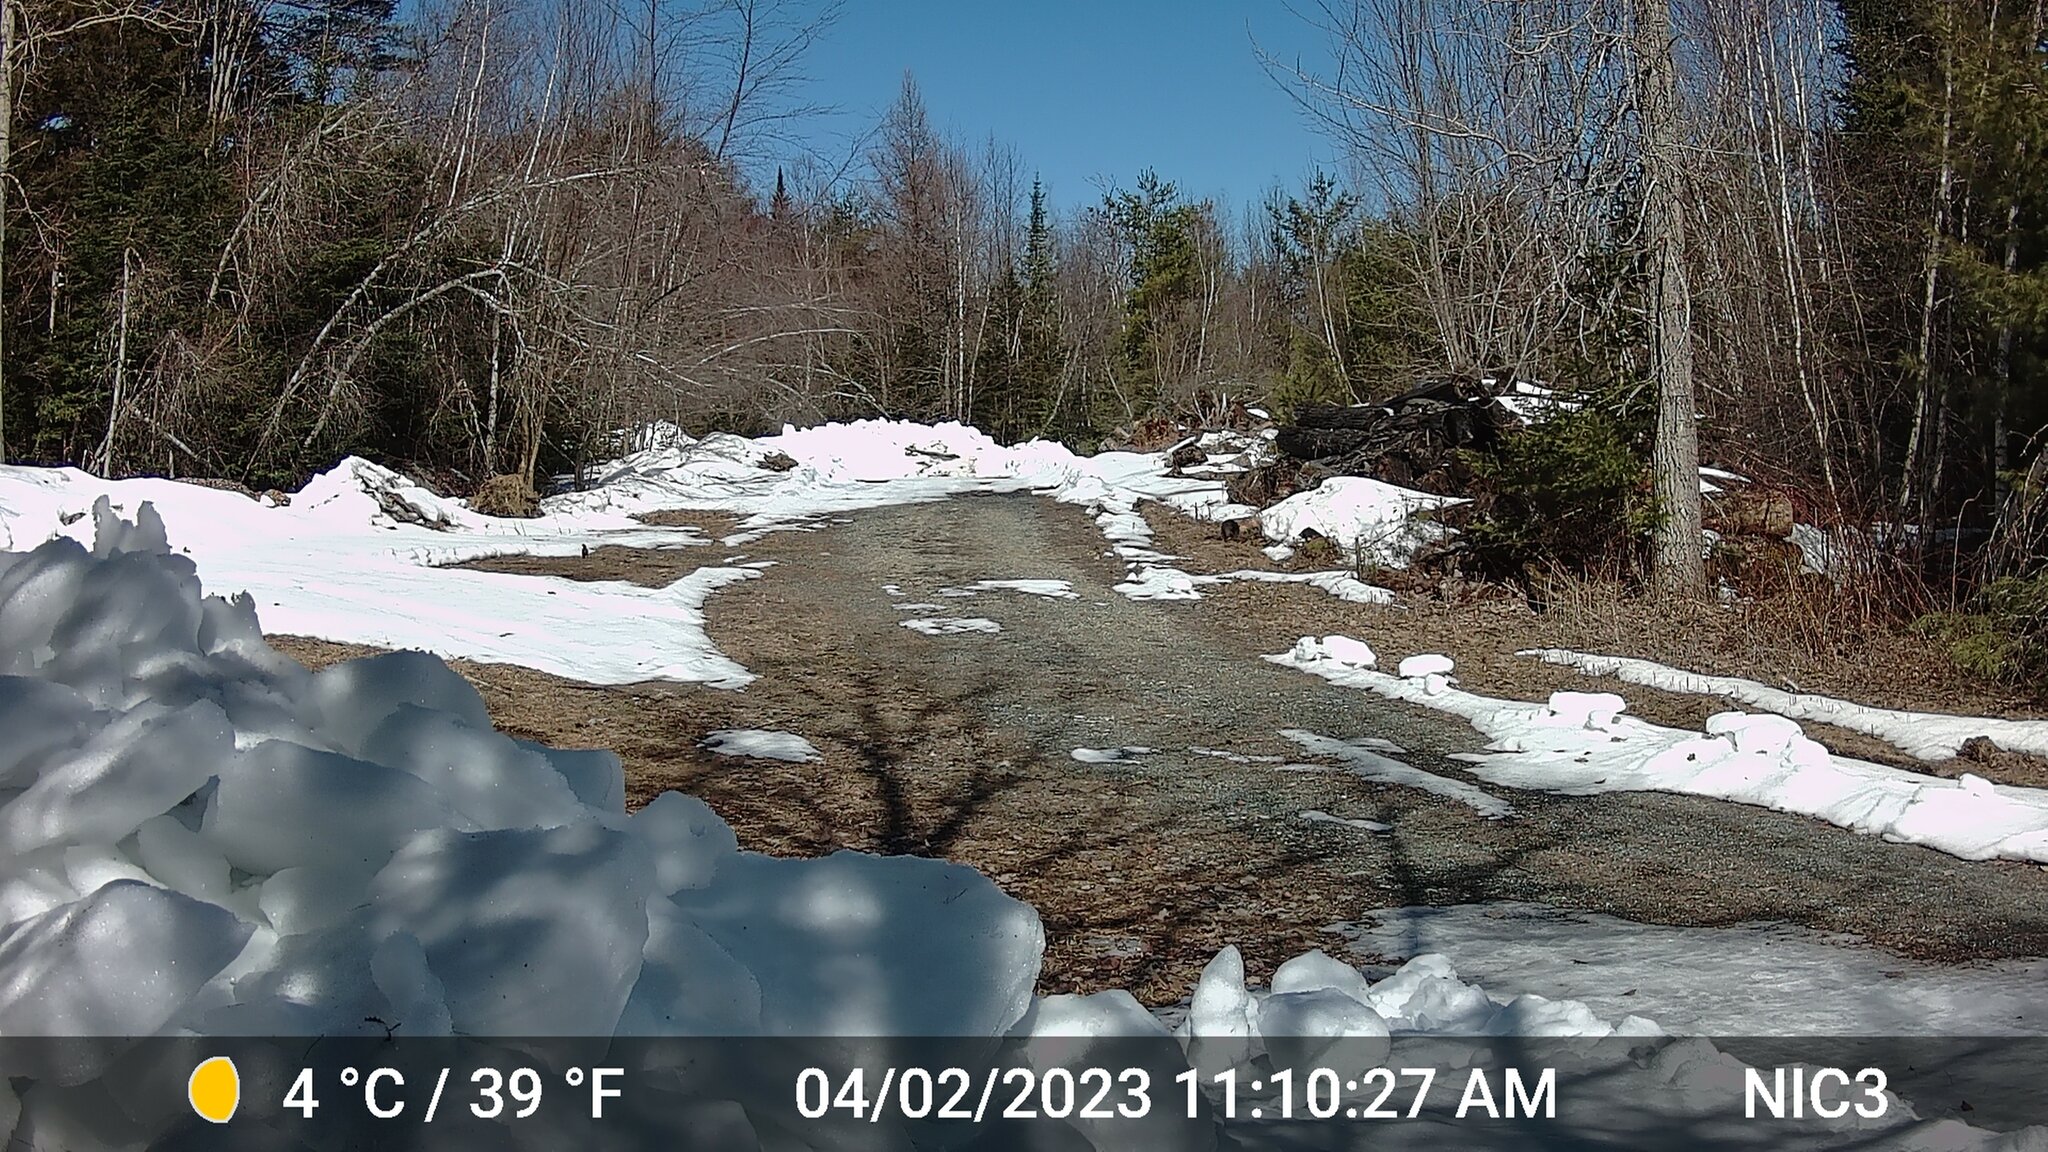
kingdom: Animalia
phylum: Chordata
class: Aves
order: Passeriformes
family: Turdidae
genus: Turdus
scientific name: Turdus migratorius
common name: American robin
